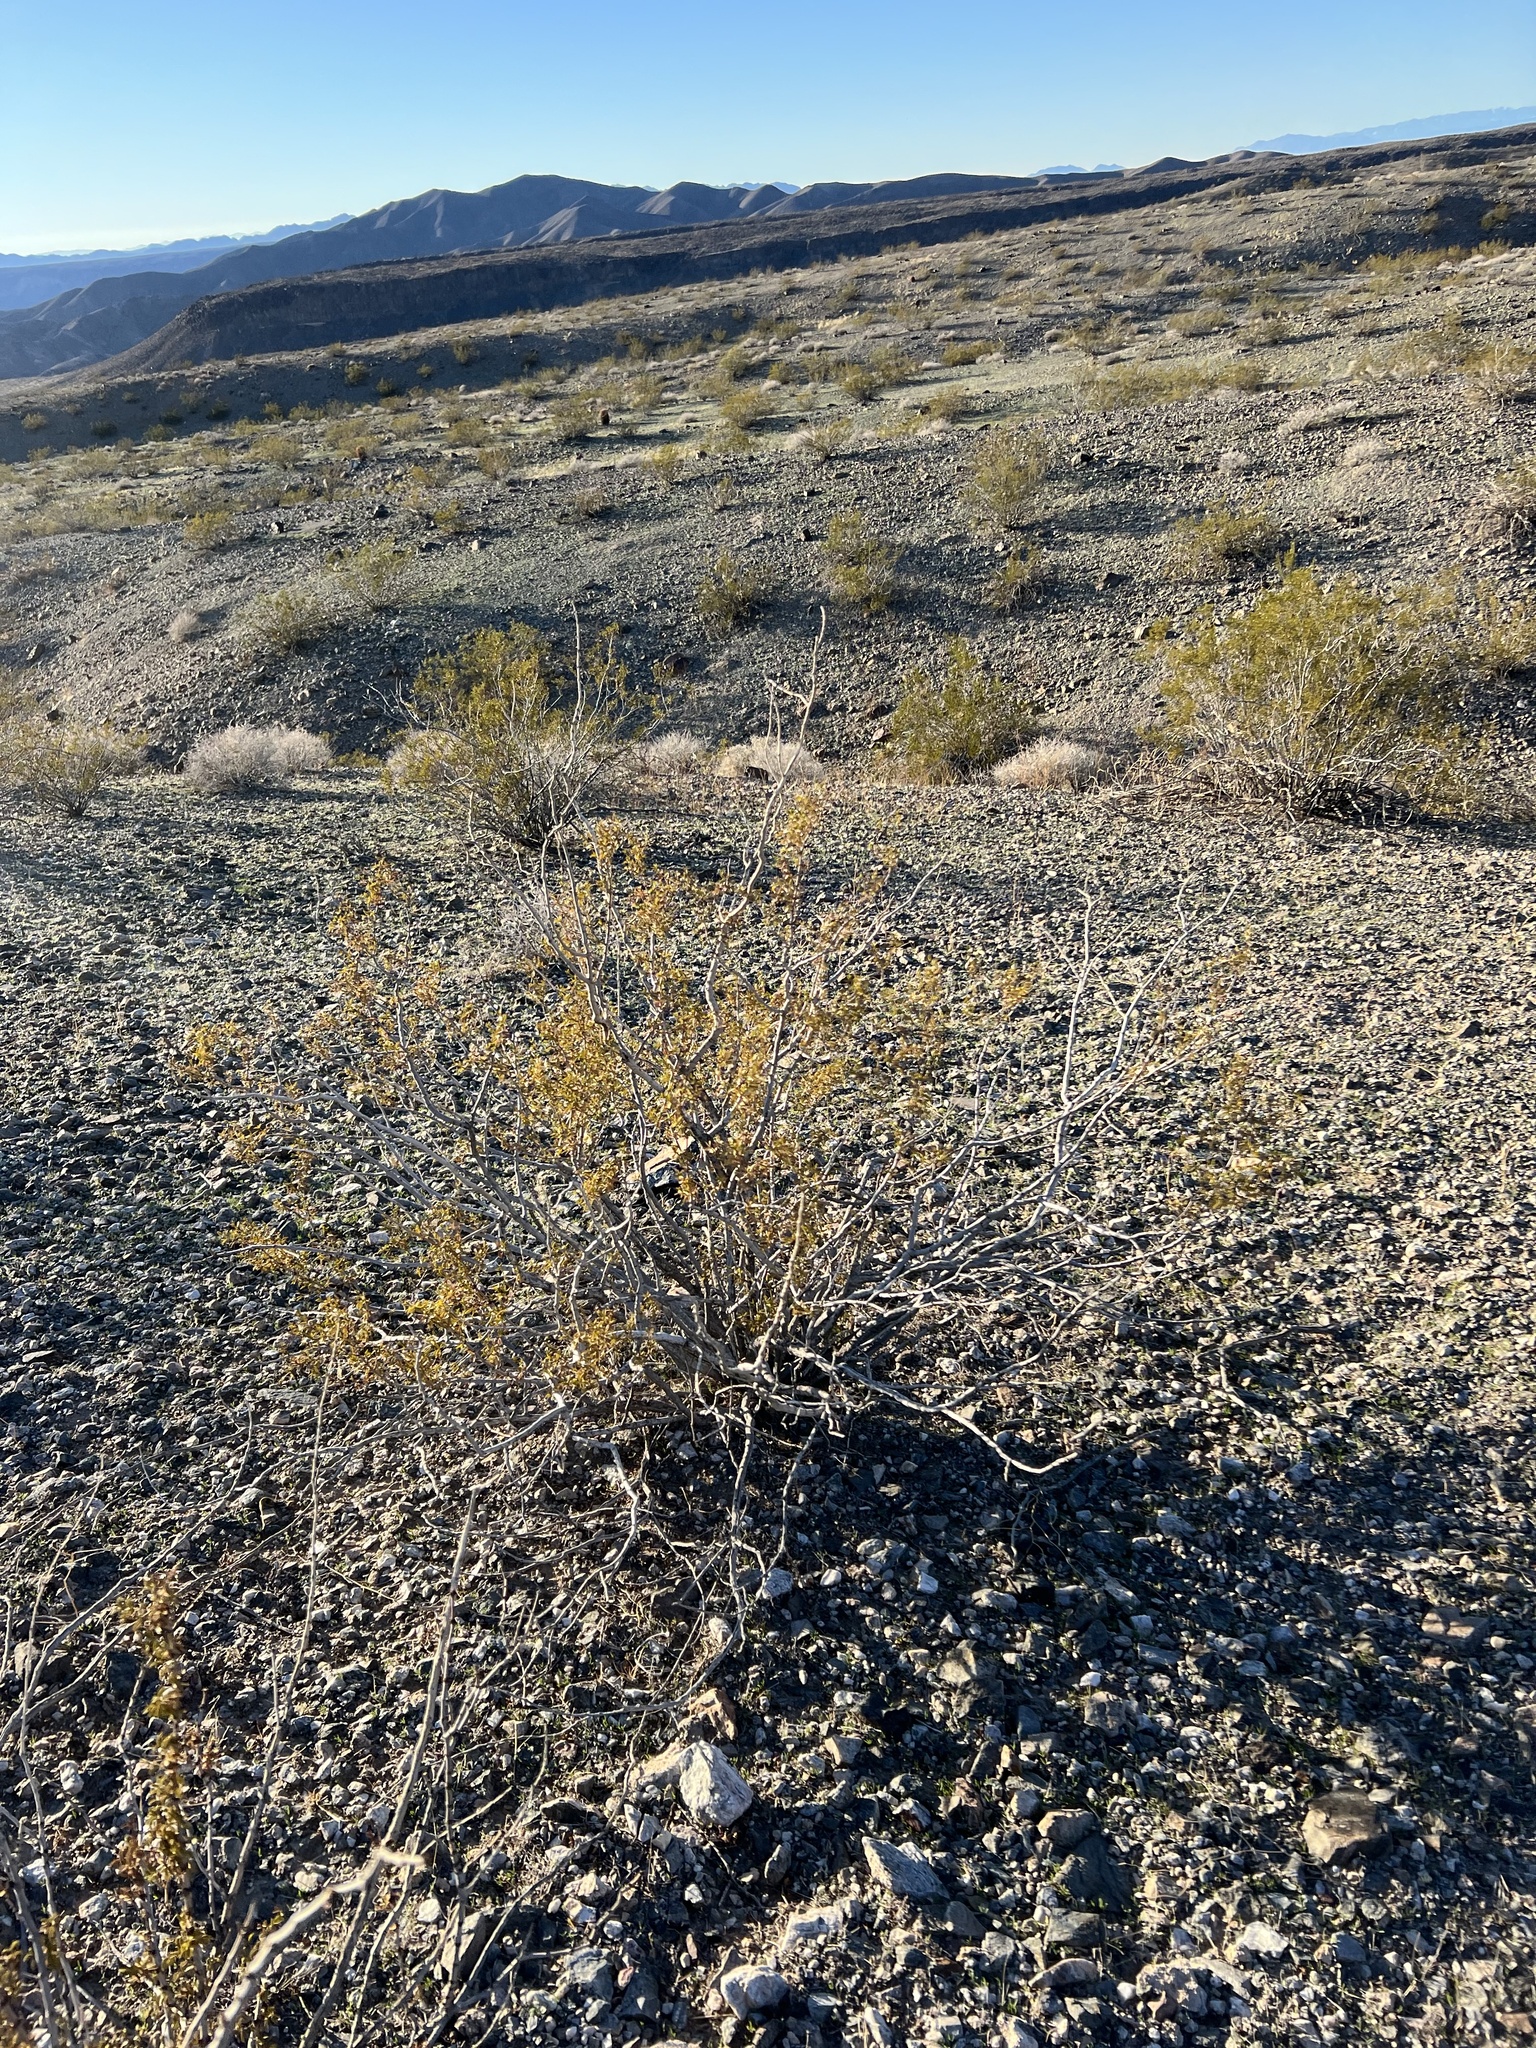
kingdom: Plantae
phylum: Tracheophyta
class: Magnoliopsida
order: Zygophyllales
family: Zygophyllaceae
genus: Larrea
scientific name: Larrea tridentata
